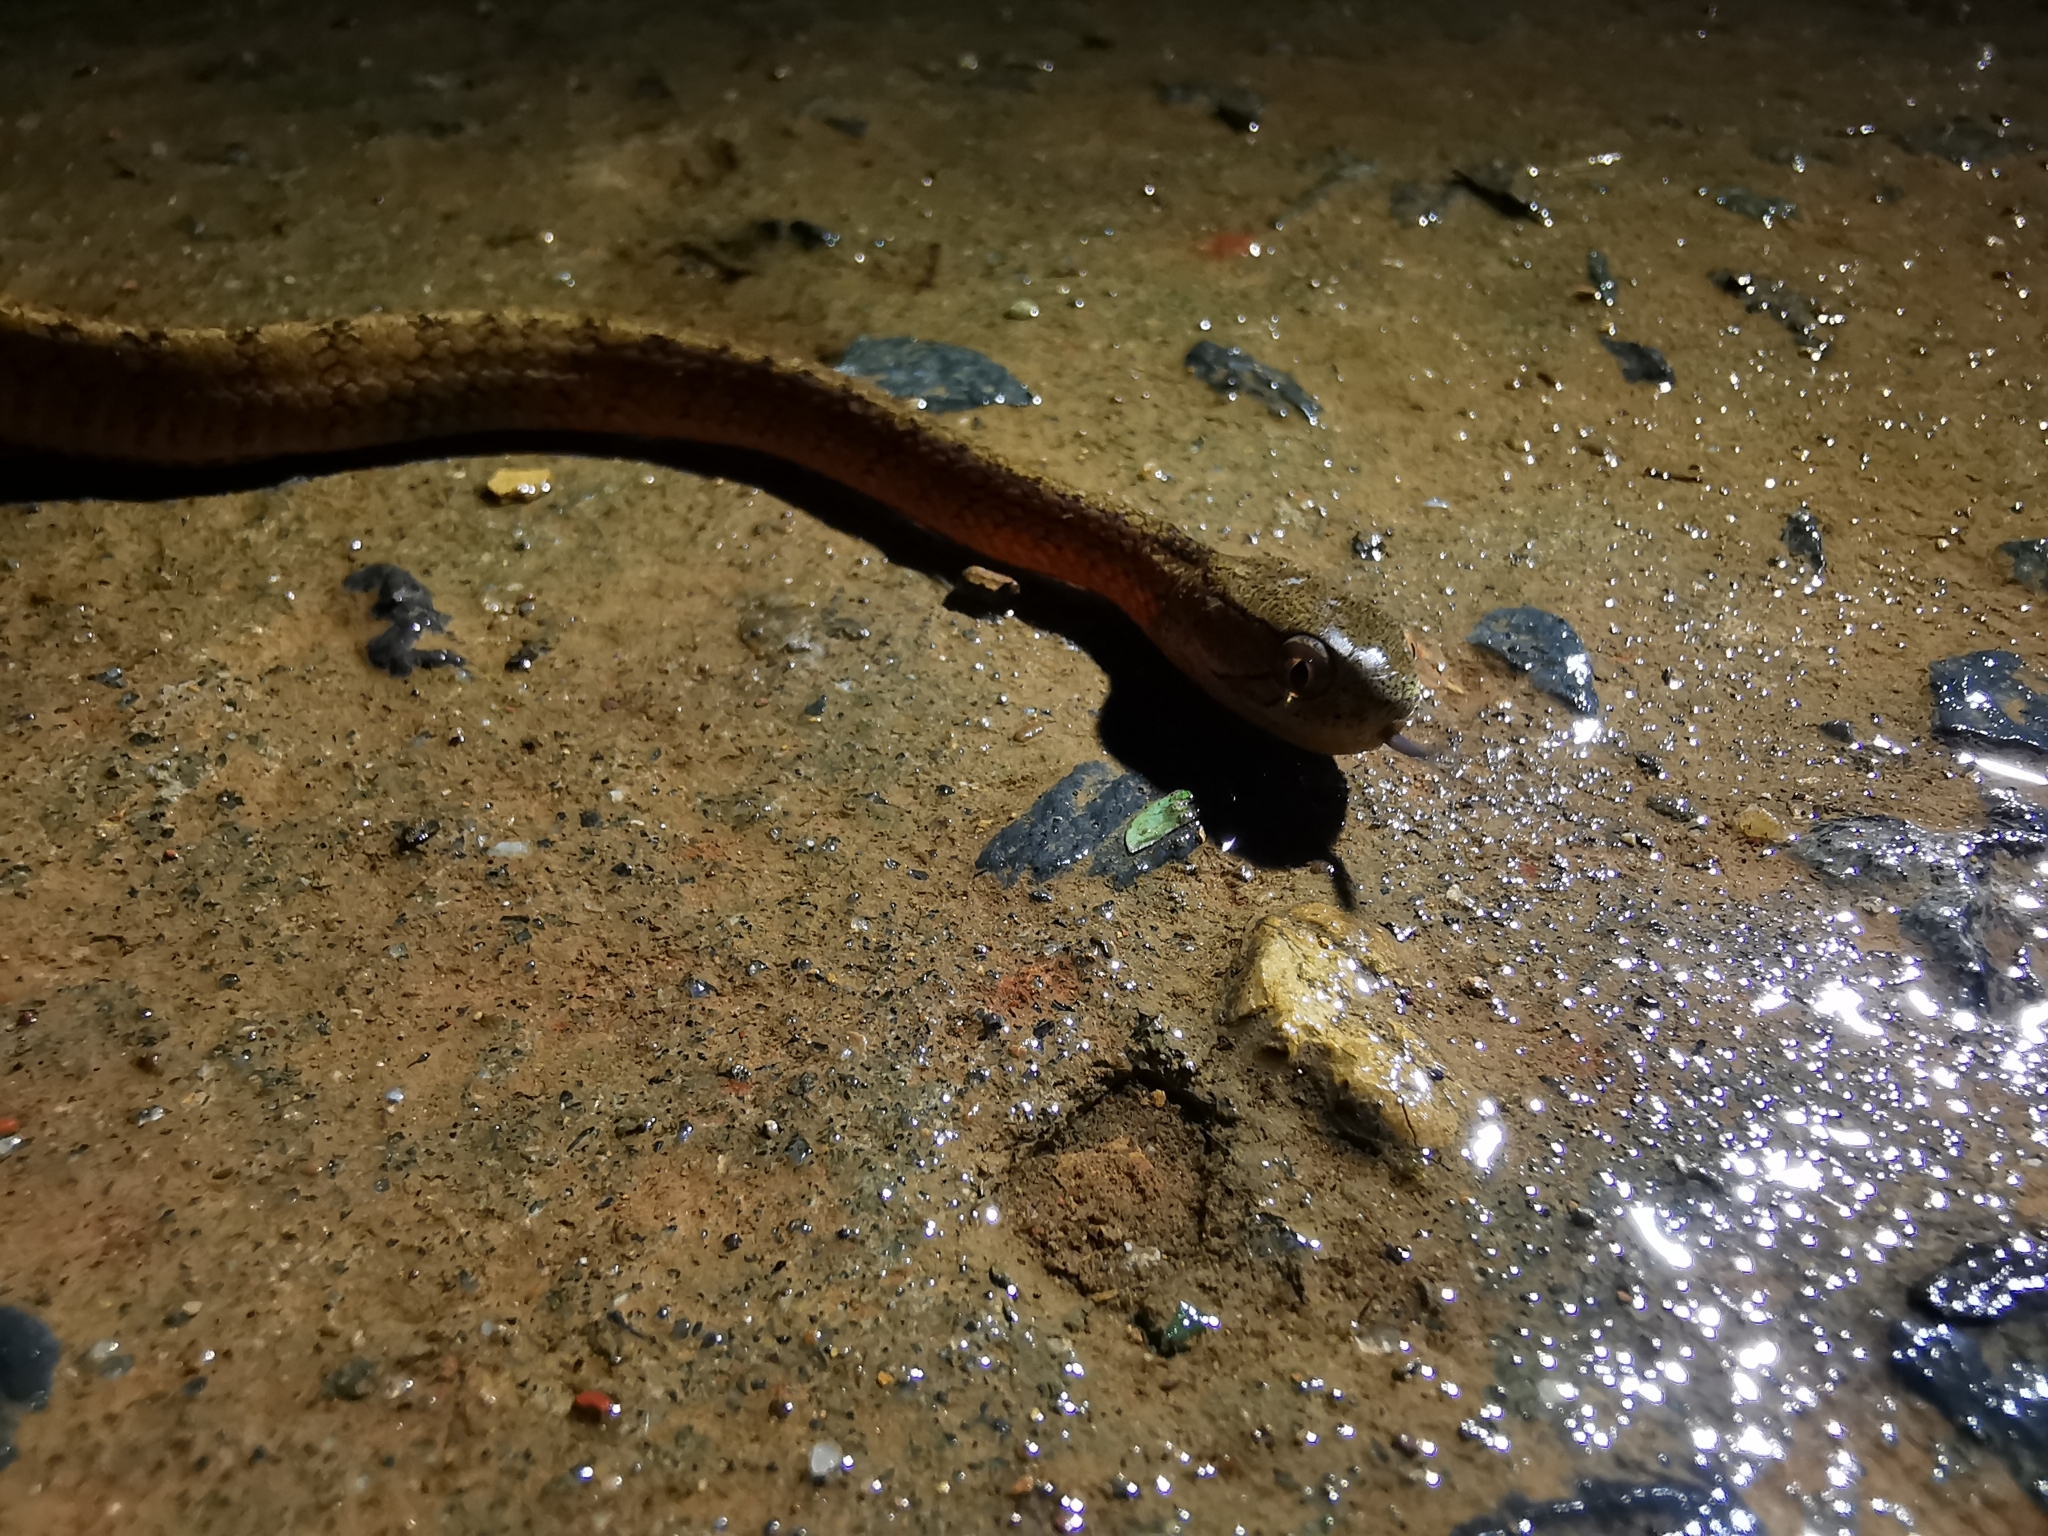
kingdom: Animalia
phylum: Chordata
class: Squamata
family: Pareidae
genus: Pareas
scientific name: Pareas carinatus
